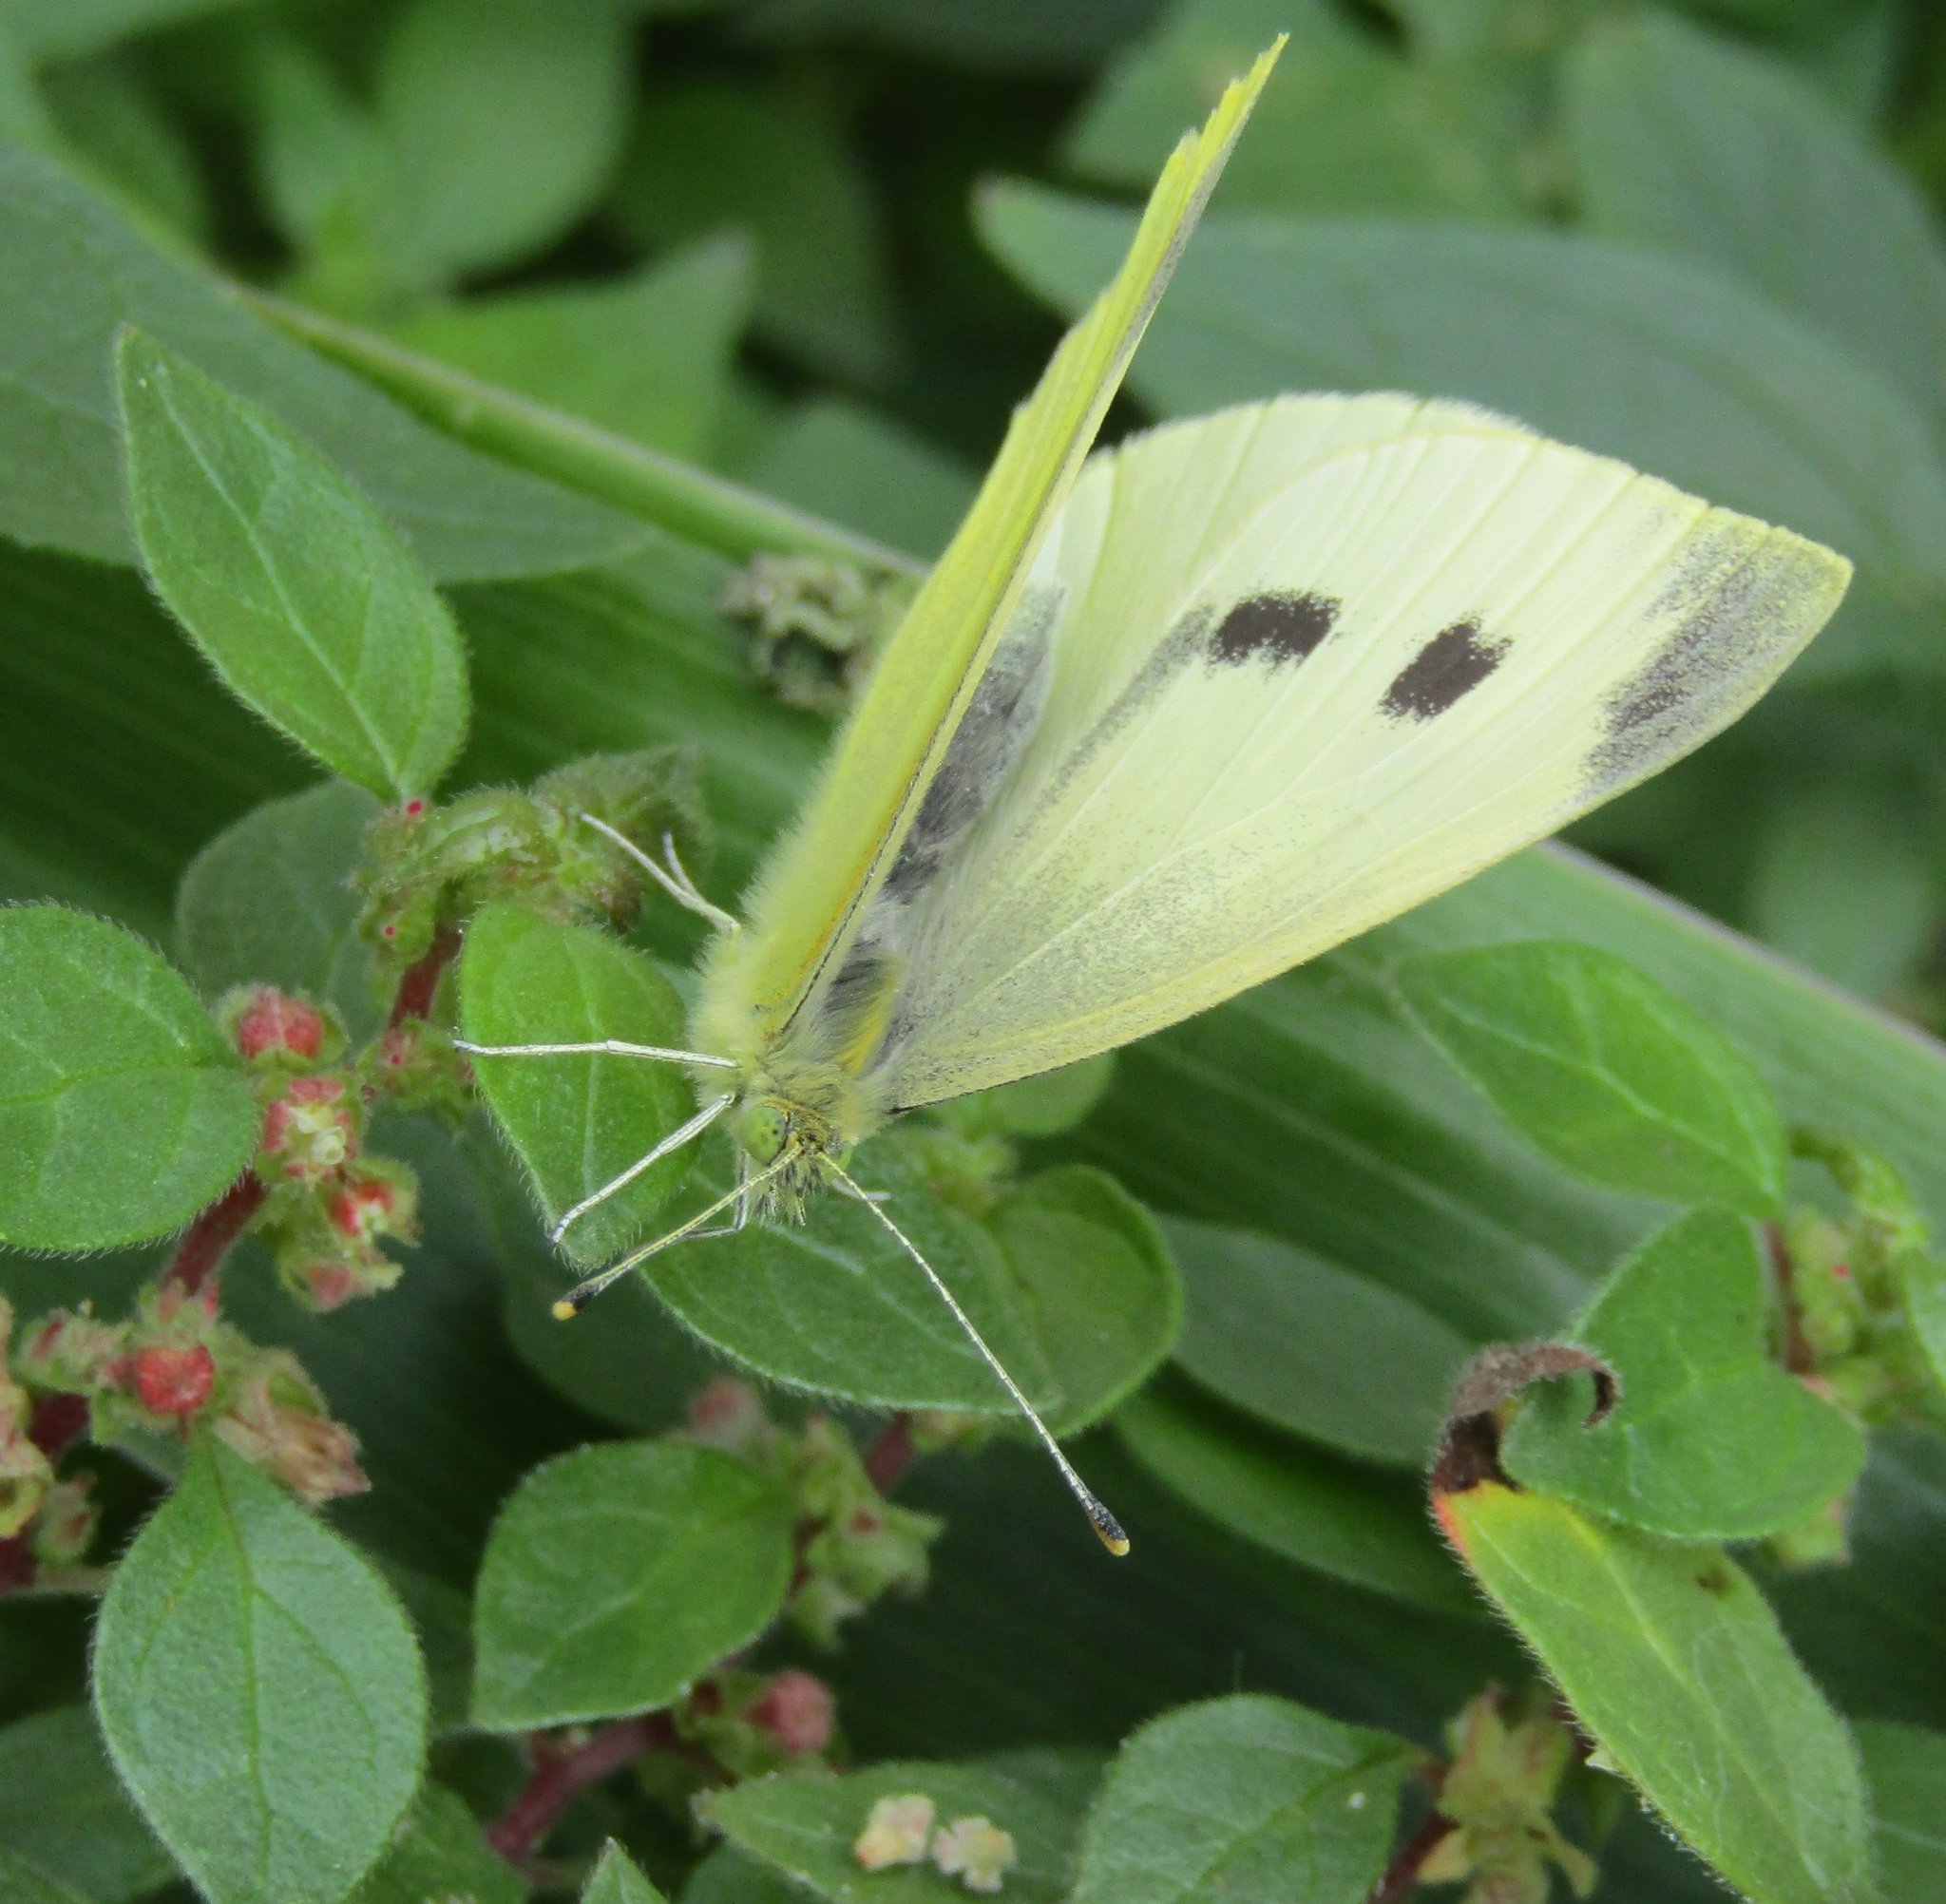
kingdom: Animalia
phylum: Arthropoda
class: Insecta
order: Lepidoptera
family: Pieridae
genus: Pieris
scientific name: Pieris rapae
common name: Small white
